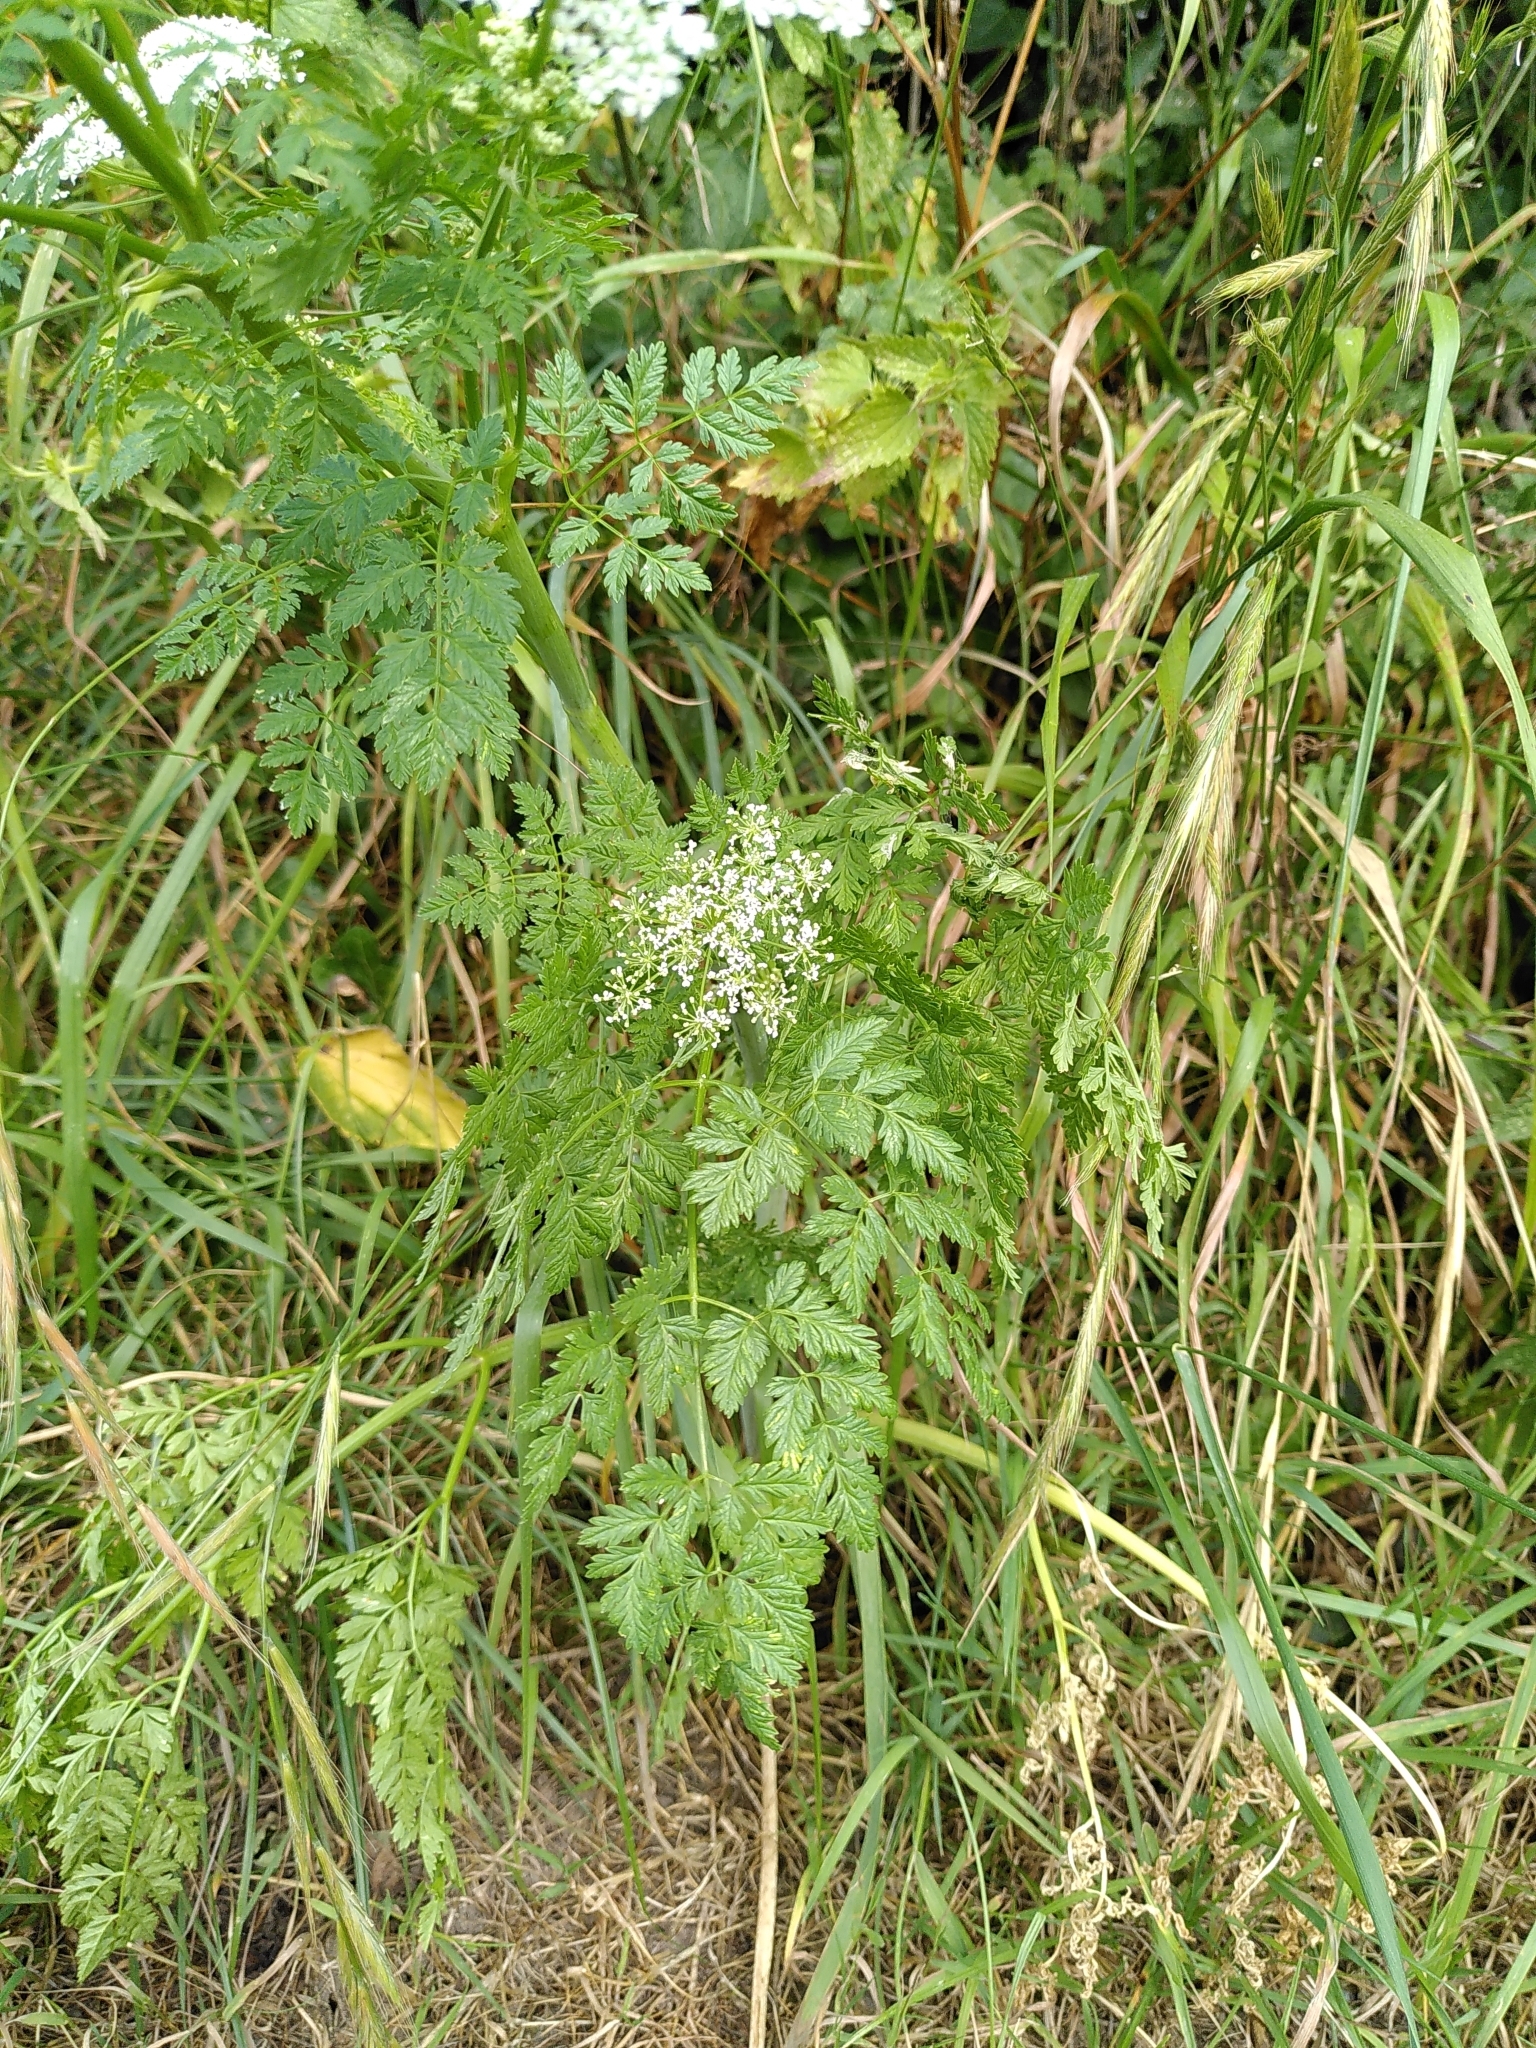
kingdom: Plantae
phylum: Tracheophyta
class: Magnoliopsida
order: Apiales
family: Apiaceae
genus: Conium
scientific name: Conium maculatum
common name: Hemlock
